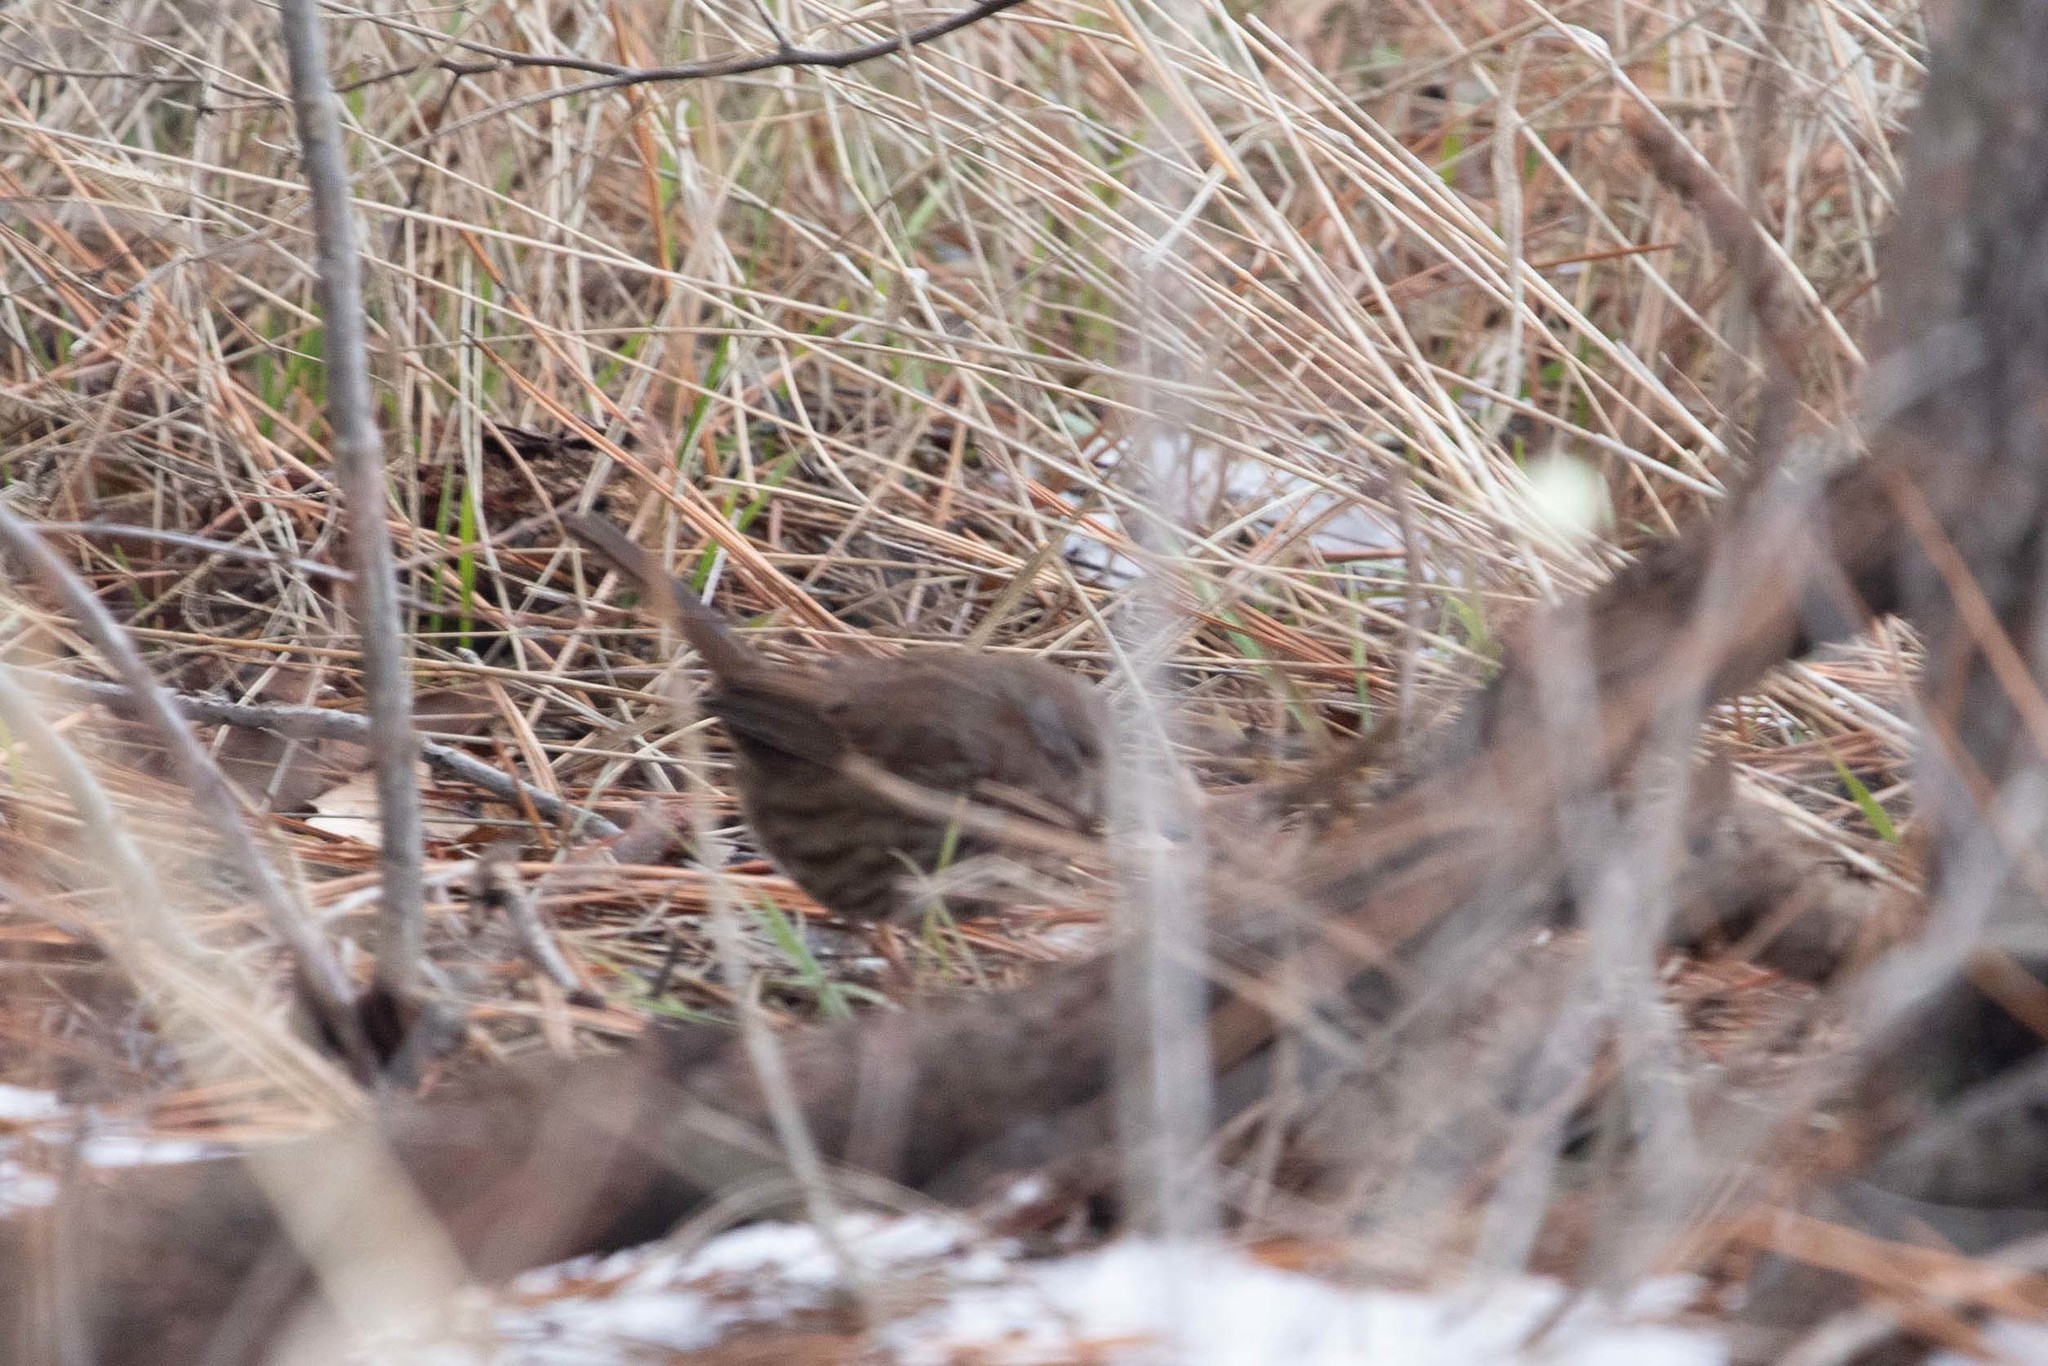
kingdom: Animalia
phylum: Chordata
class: Aves
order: Passeriformes
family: Passerellidae
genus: Melospiza
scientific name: Melospiza melodia
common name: Song sparrow
